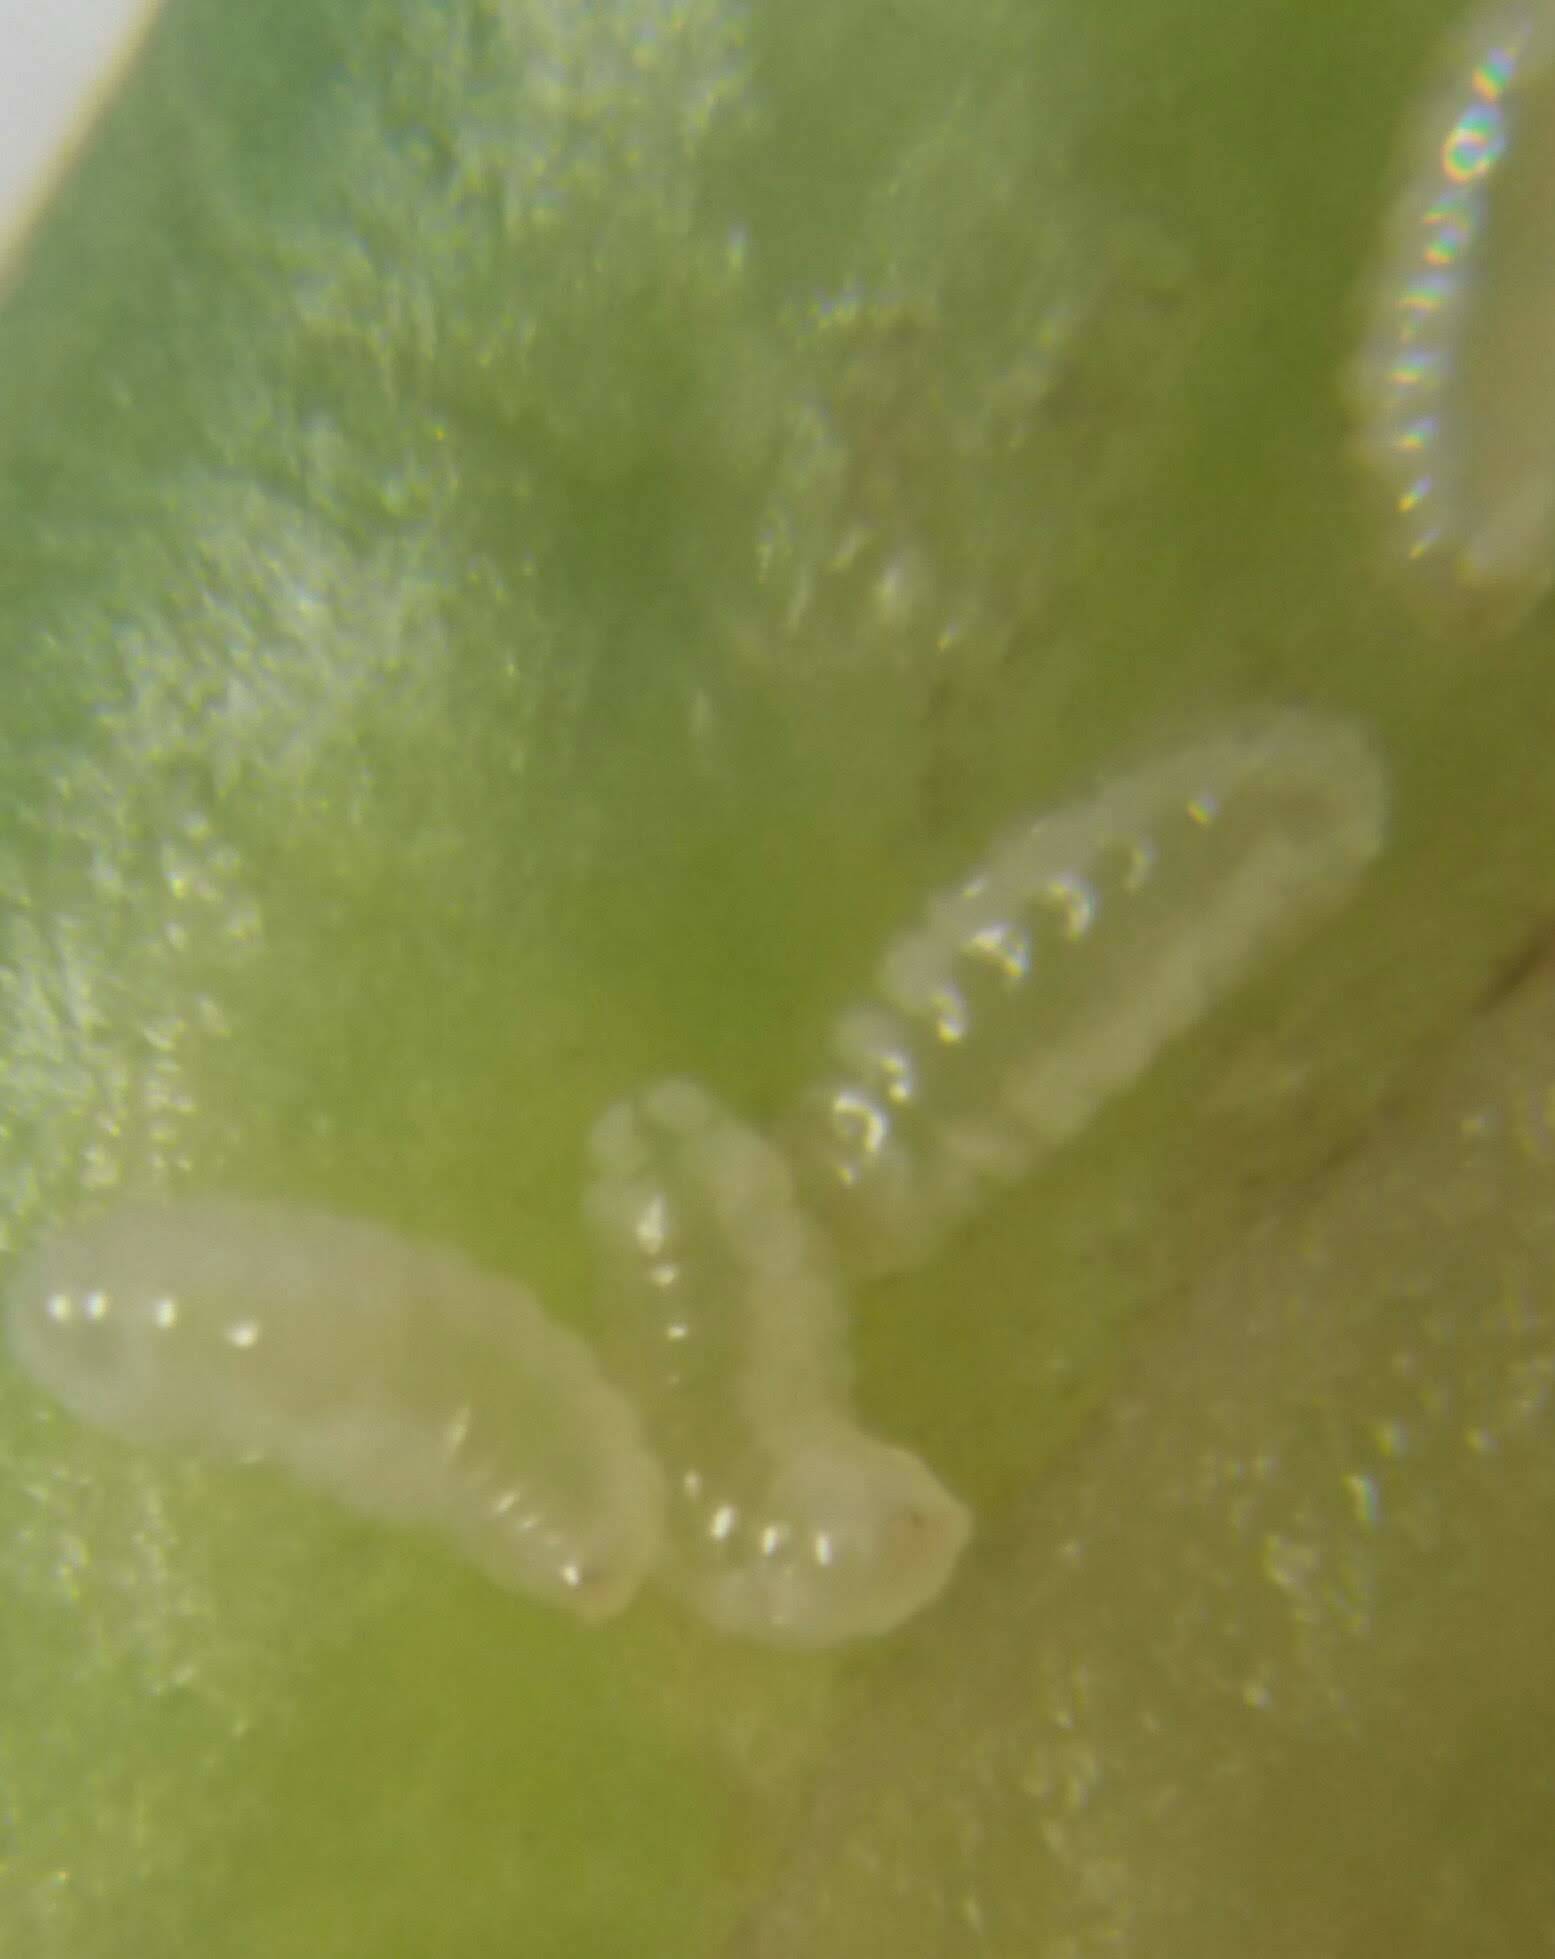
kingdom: Animalia
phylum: Arthropoda
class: Insecta
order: Diptera
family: Cecidomyiidae
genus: Dasineura
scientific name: Dasineura tumidosae
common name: Ash petiole gall midge
